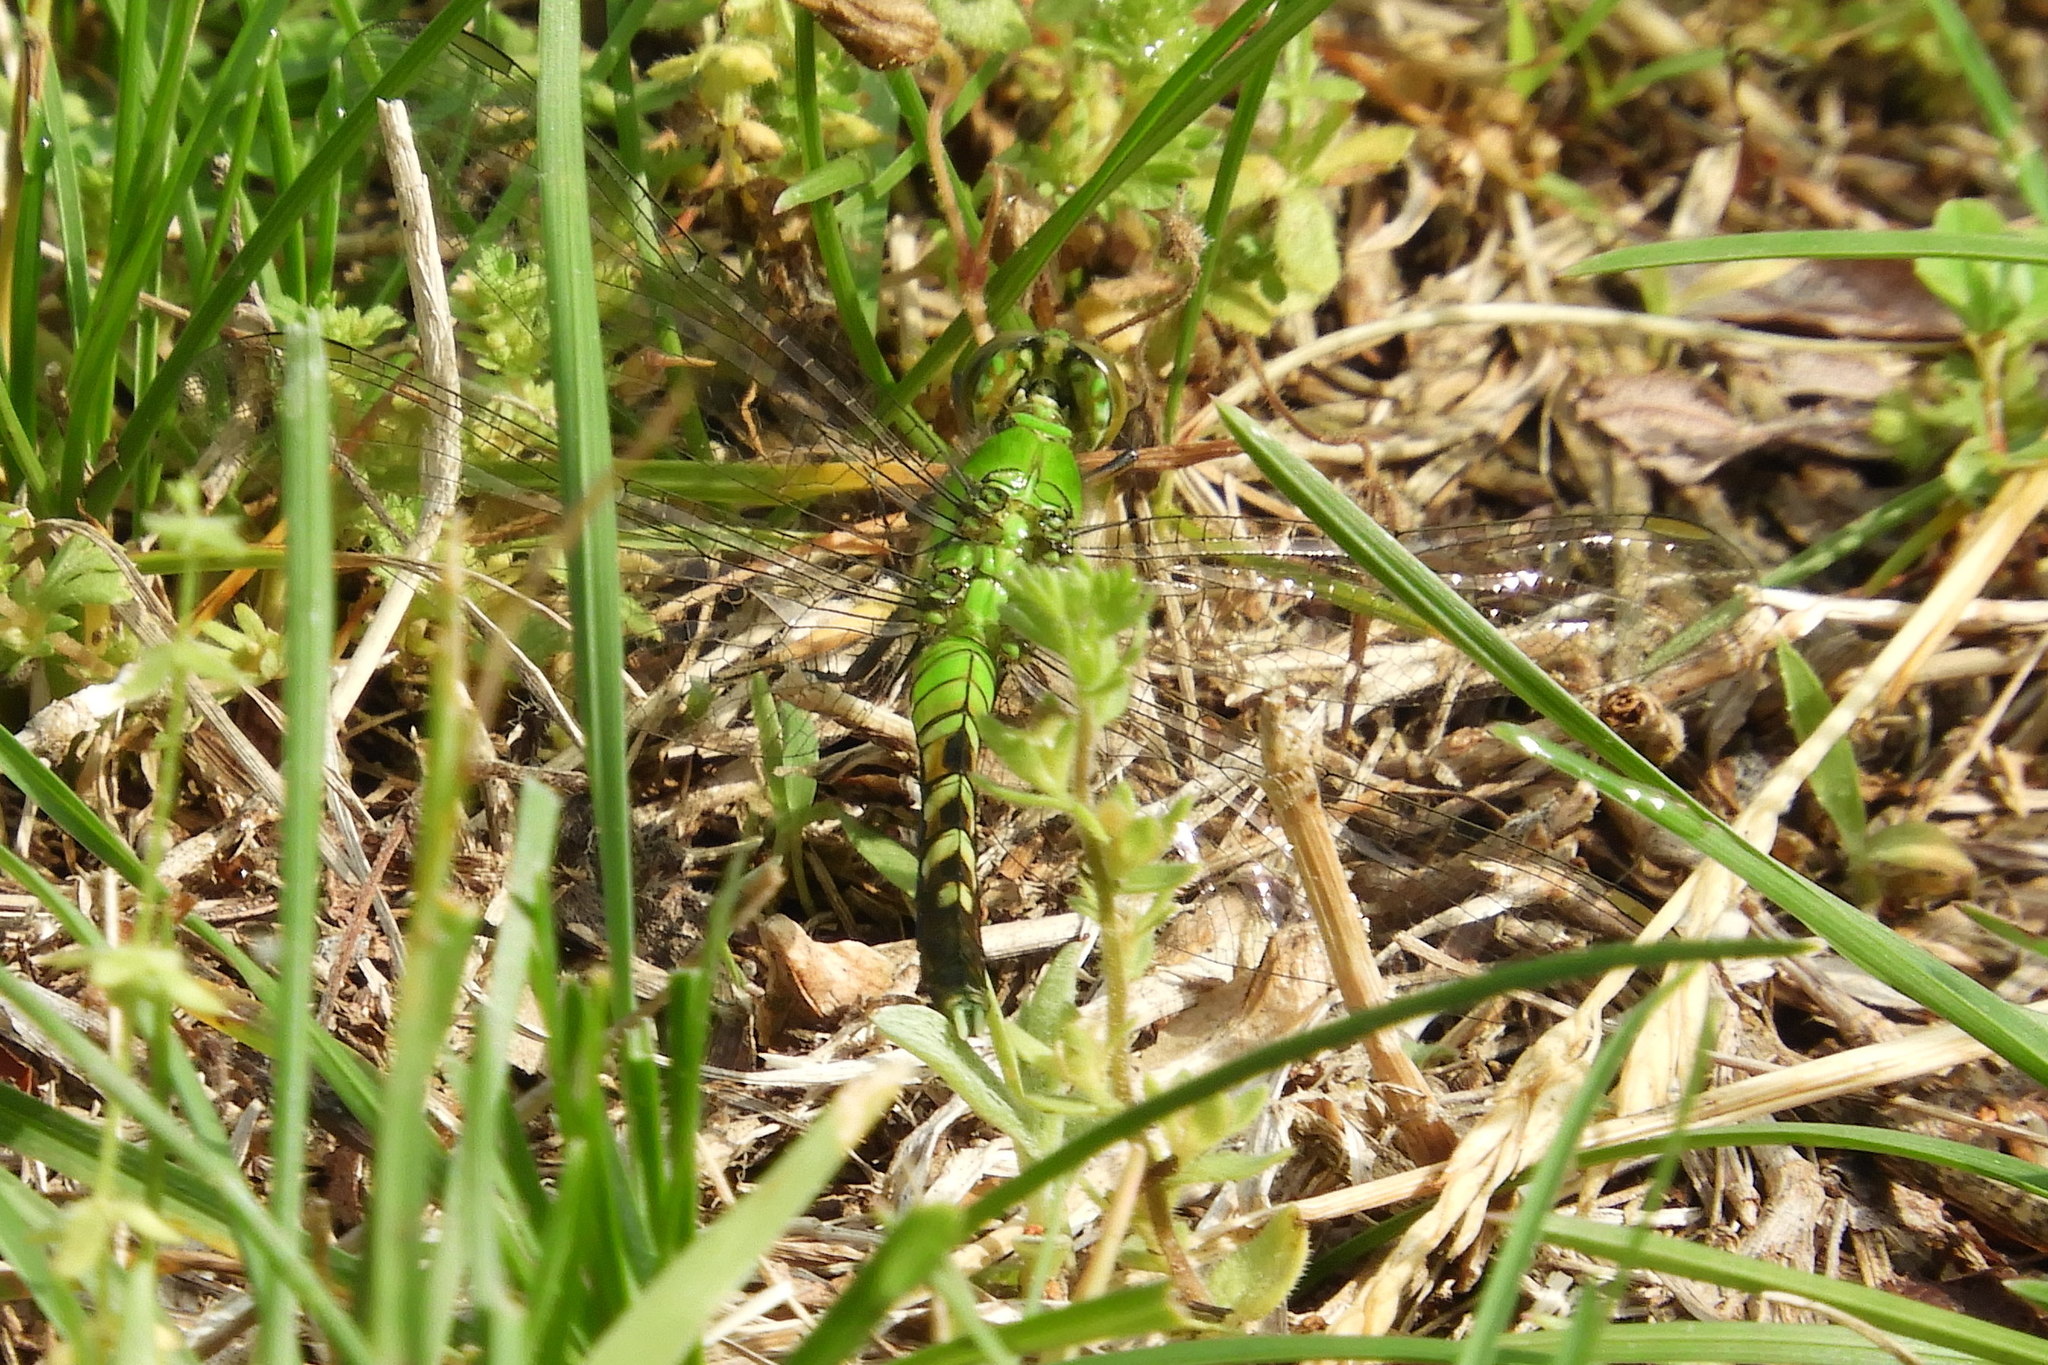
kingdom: Animalia
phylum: Arthropoda
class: Insecta
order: Odonata
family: Libellulidae
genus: Erythemis
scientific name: Erythemis simplicicollis
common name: Eastern pondhawk
